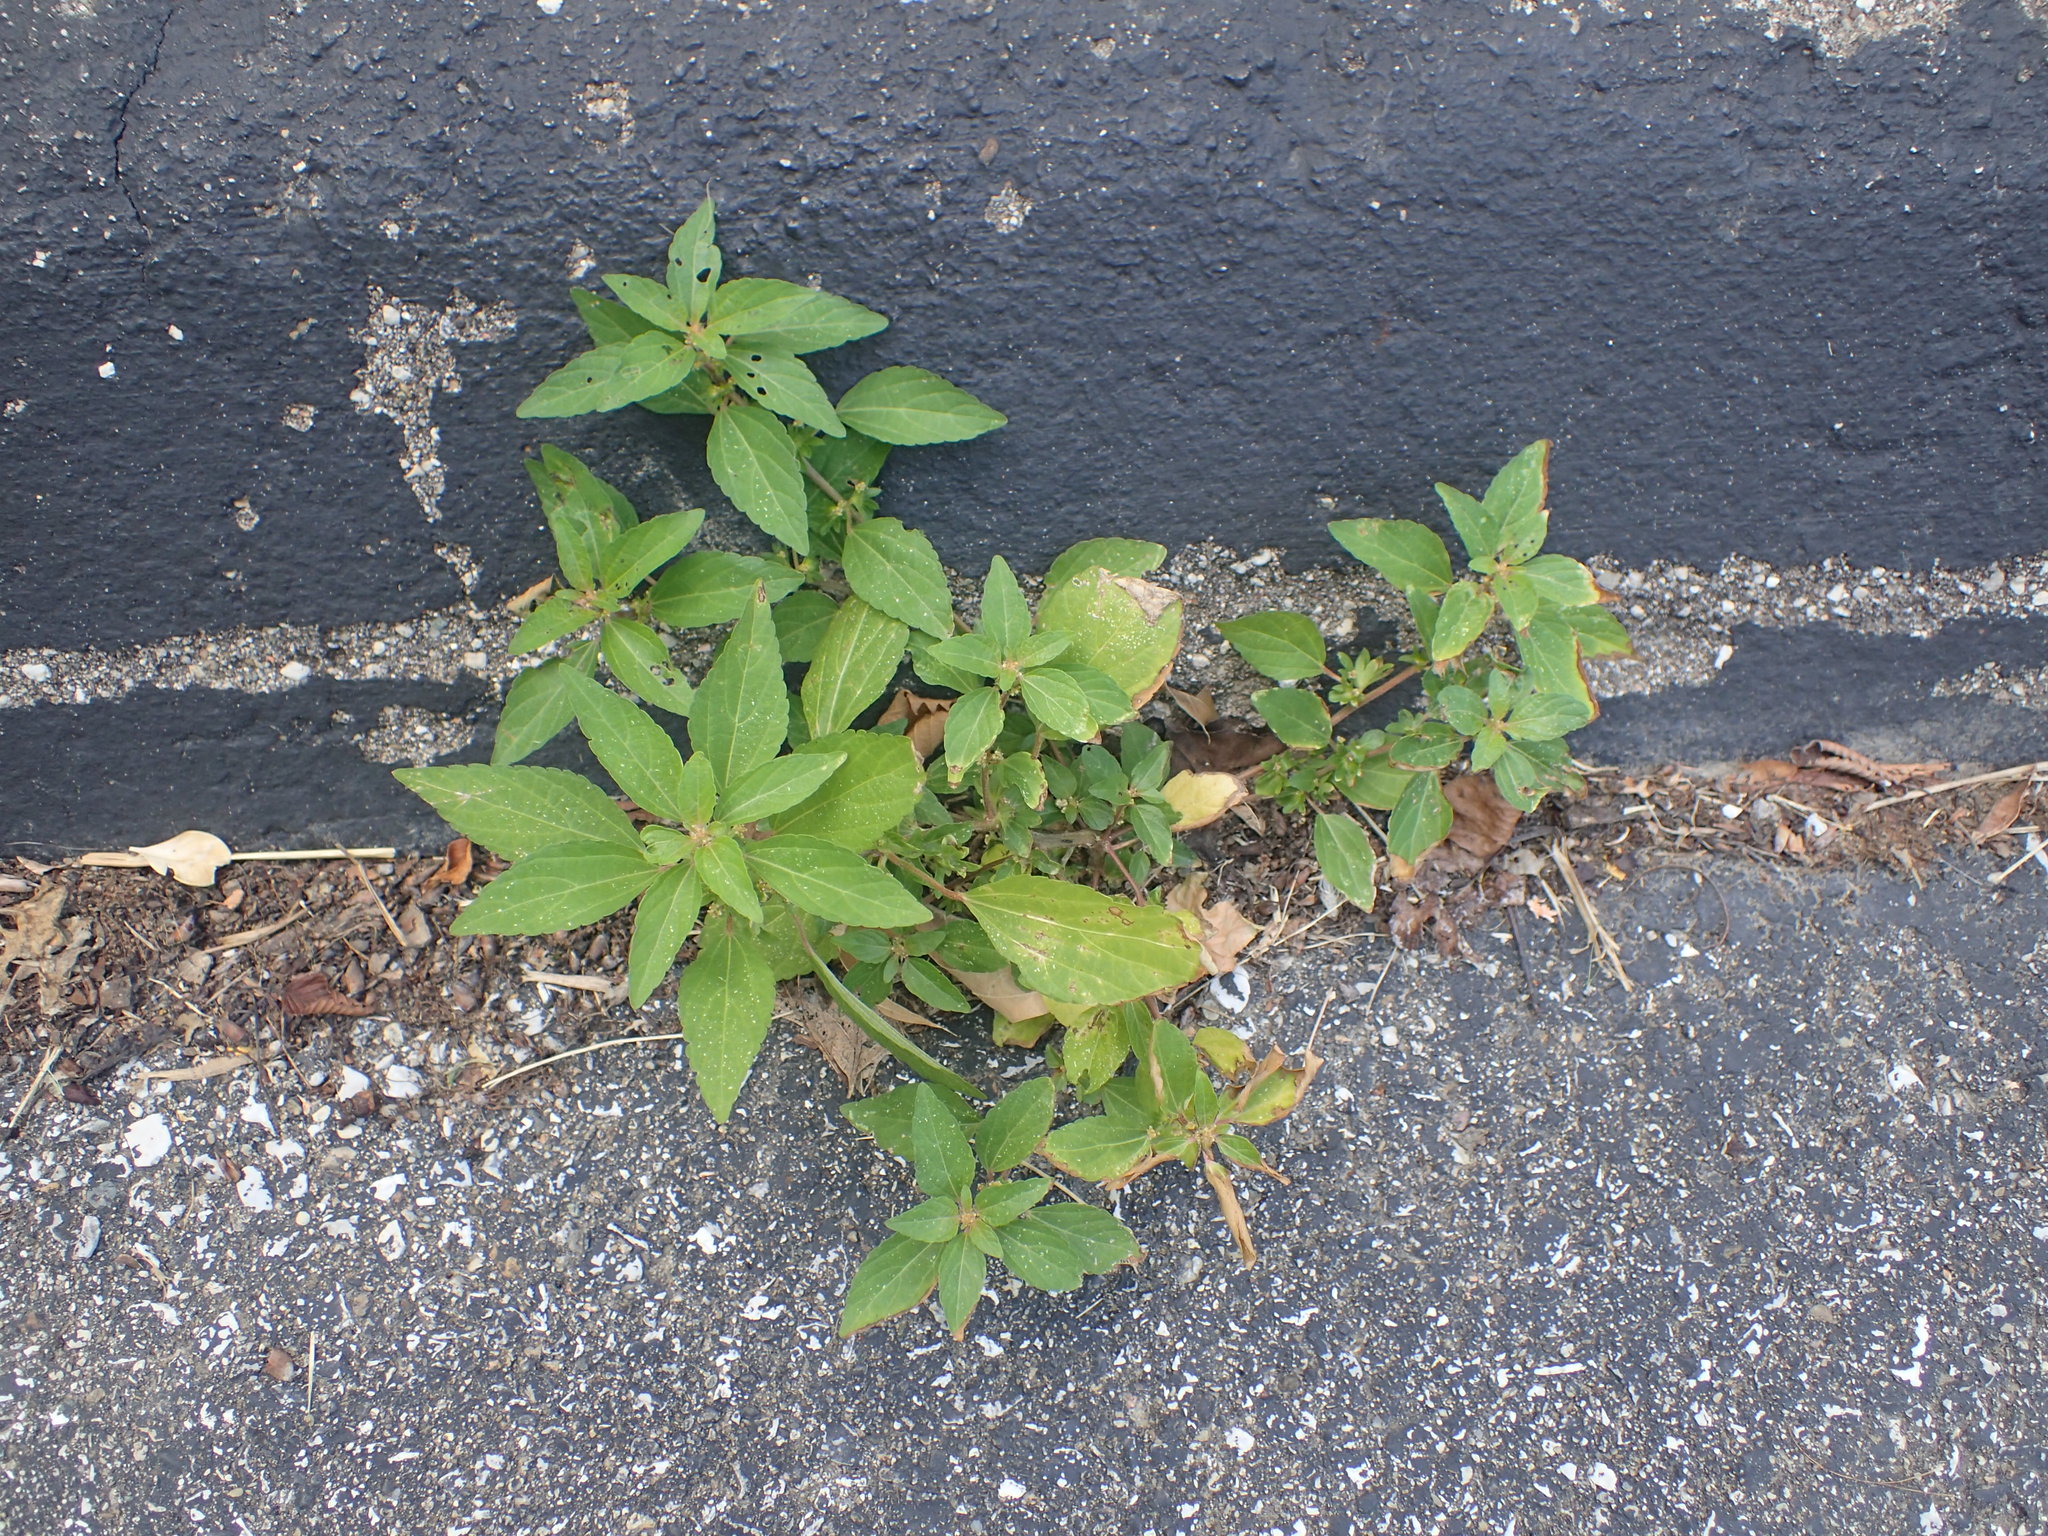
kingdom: Plantae
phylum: Tracheophyta
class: Magnoliopsida
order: Malpighiales
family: Euphorbiaceae
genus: Acalypha
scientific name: Acalypha rhomboidea
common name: Rhombic copperleaf
